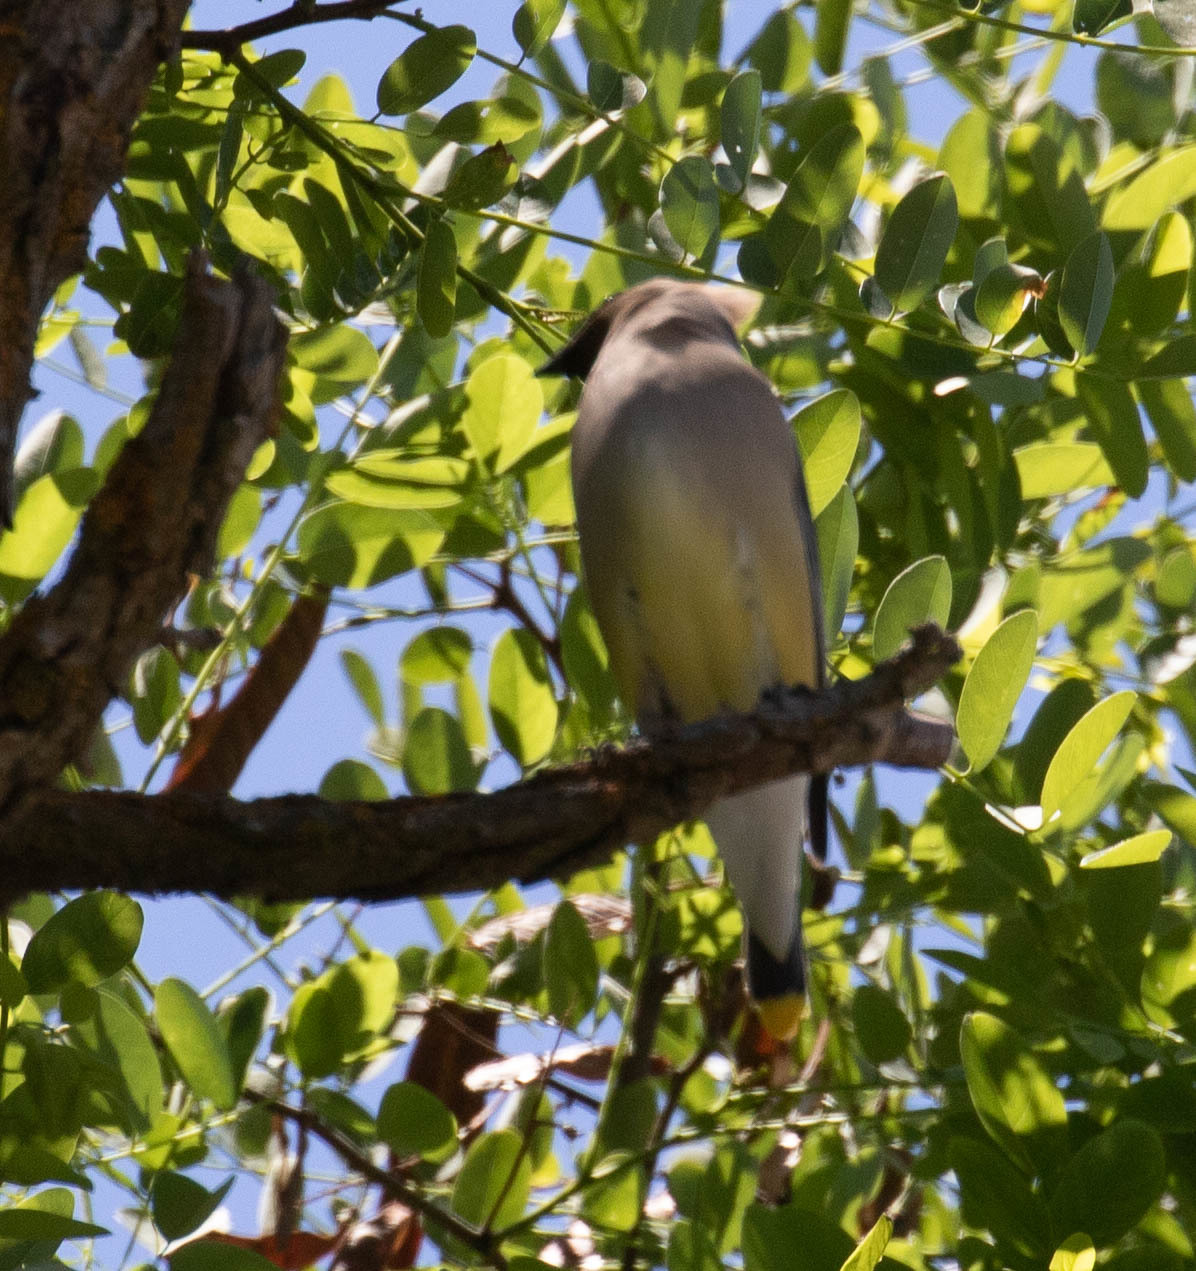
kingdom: Animalia
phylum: Chordata
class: Aves
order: Passeriformes
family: Bombycillidae
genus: Bombycilla
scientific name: Bombycilla cedrorum
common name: Cedar waxwing
